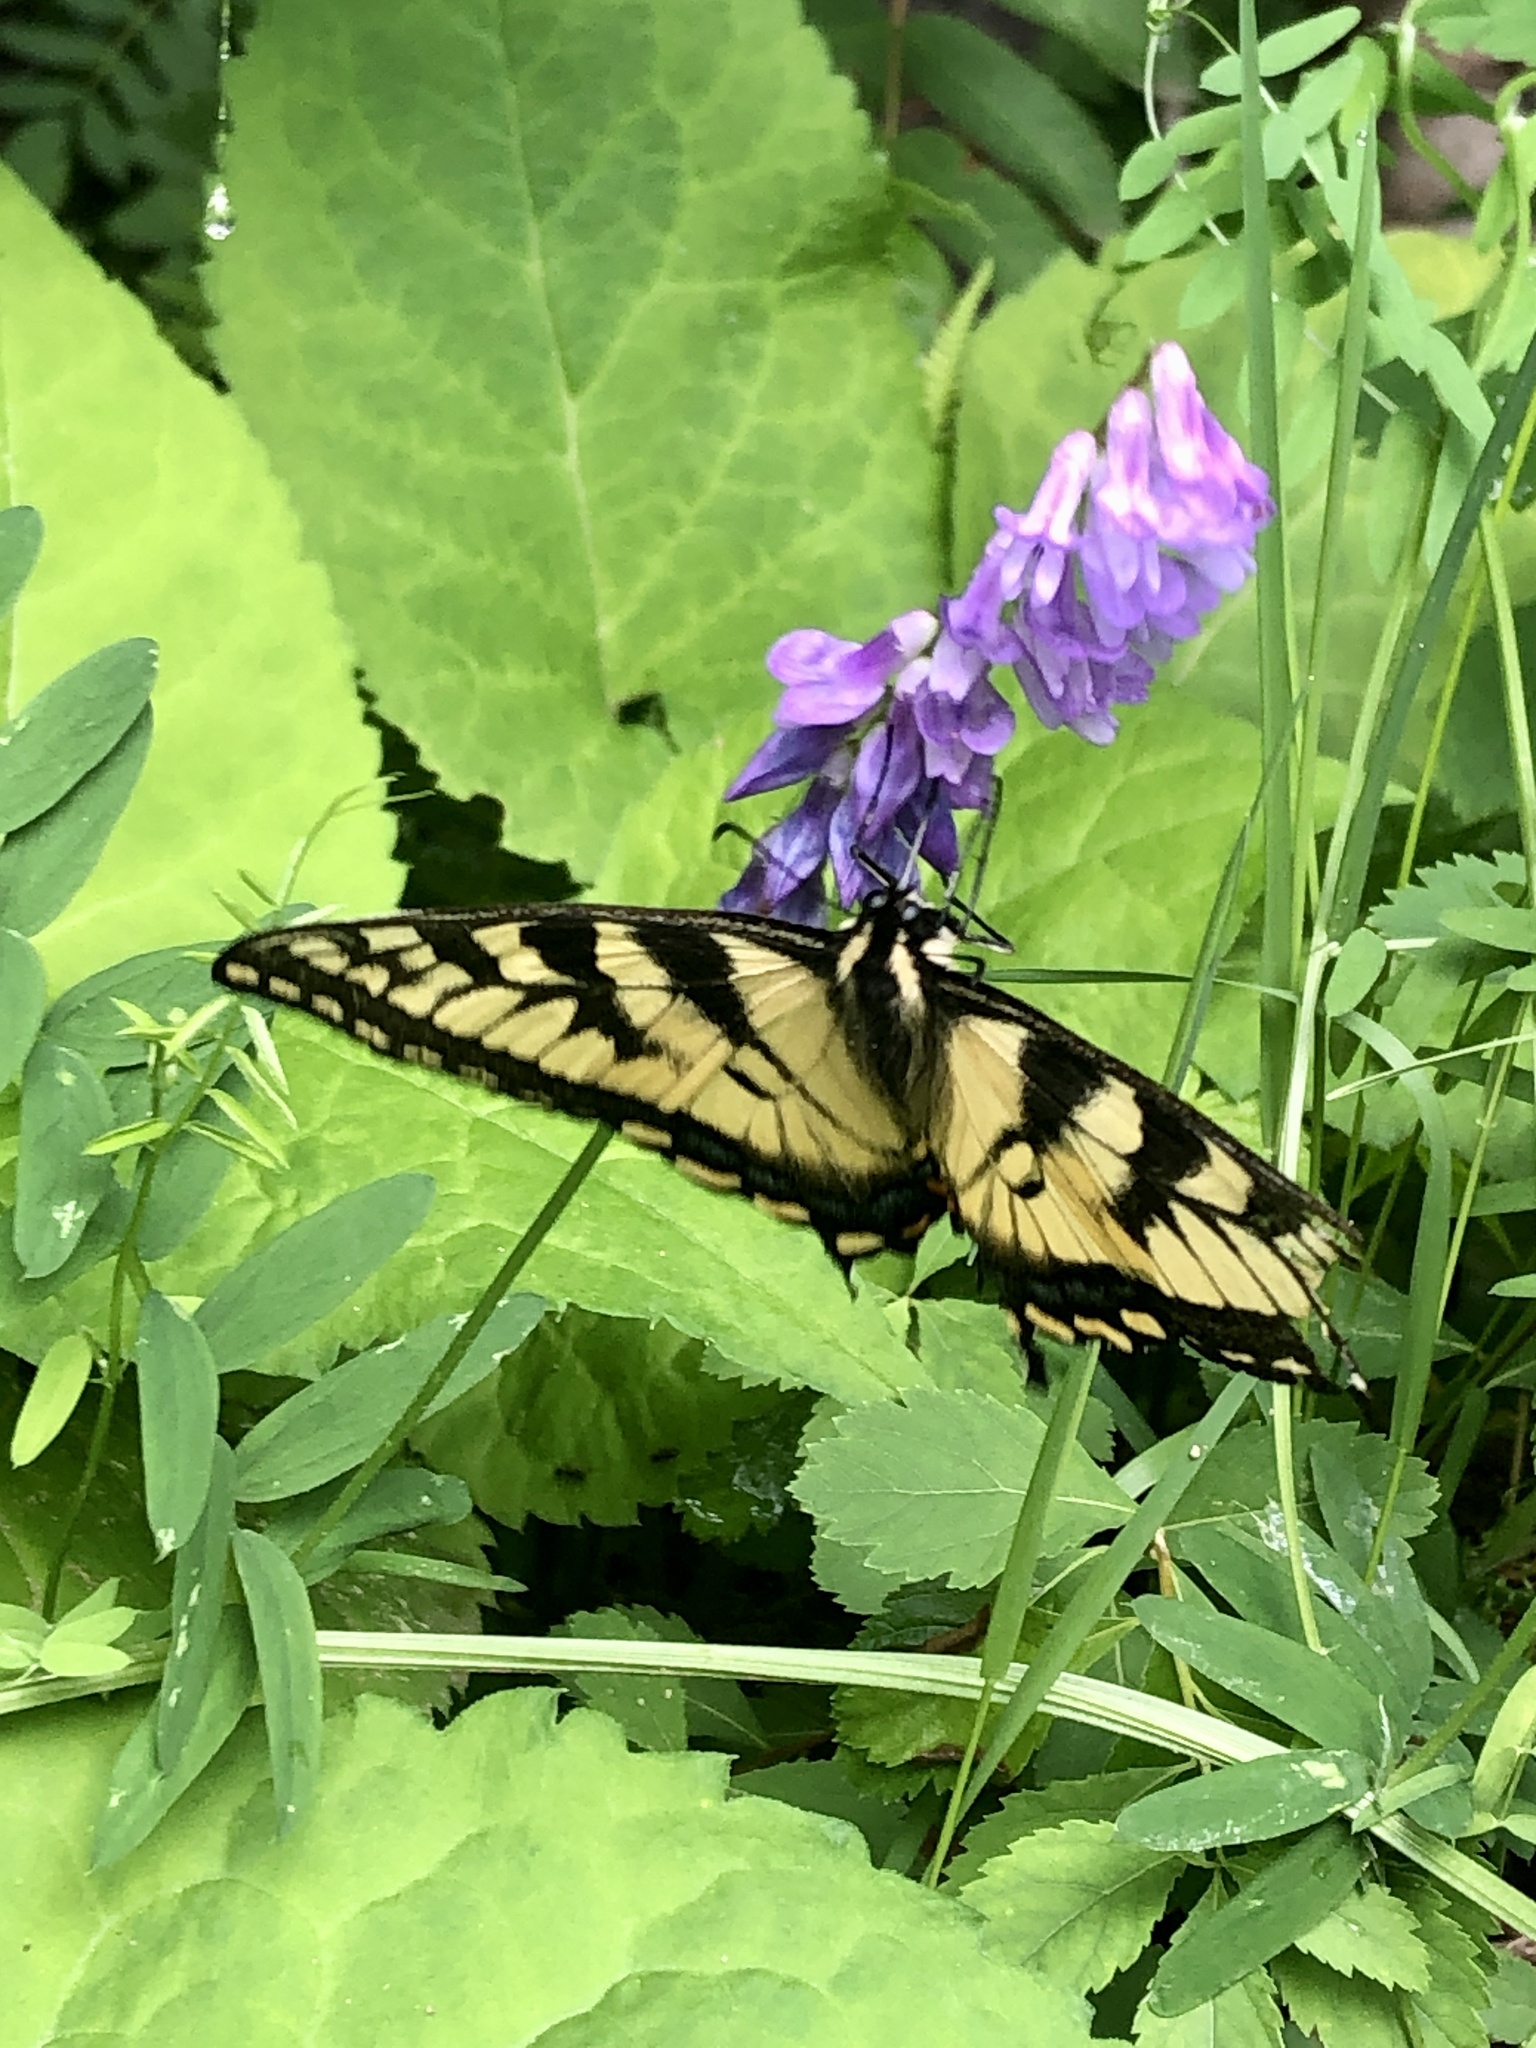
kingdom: Animalia
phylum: Arthropoda
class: Insecta
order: Lepidoptera
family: Papilionidae
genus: Papilio
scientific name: Papilio canadensis
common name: Canadian tiger swallowtail
